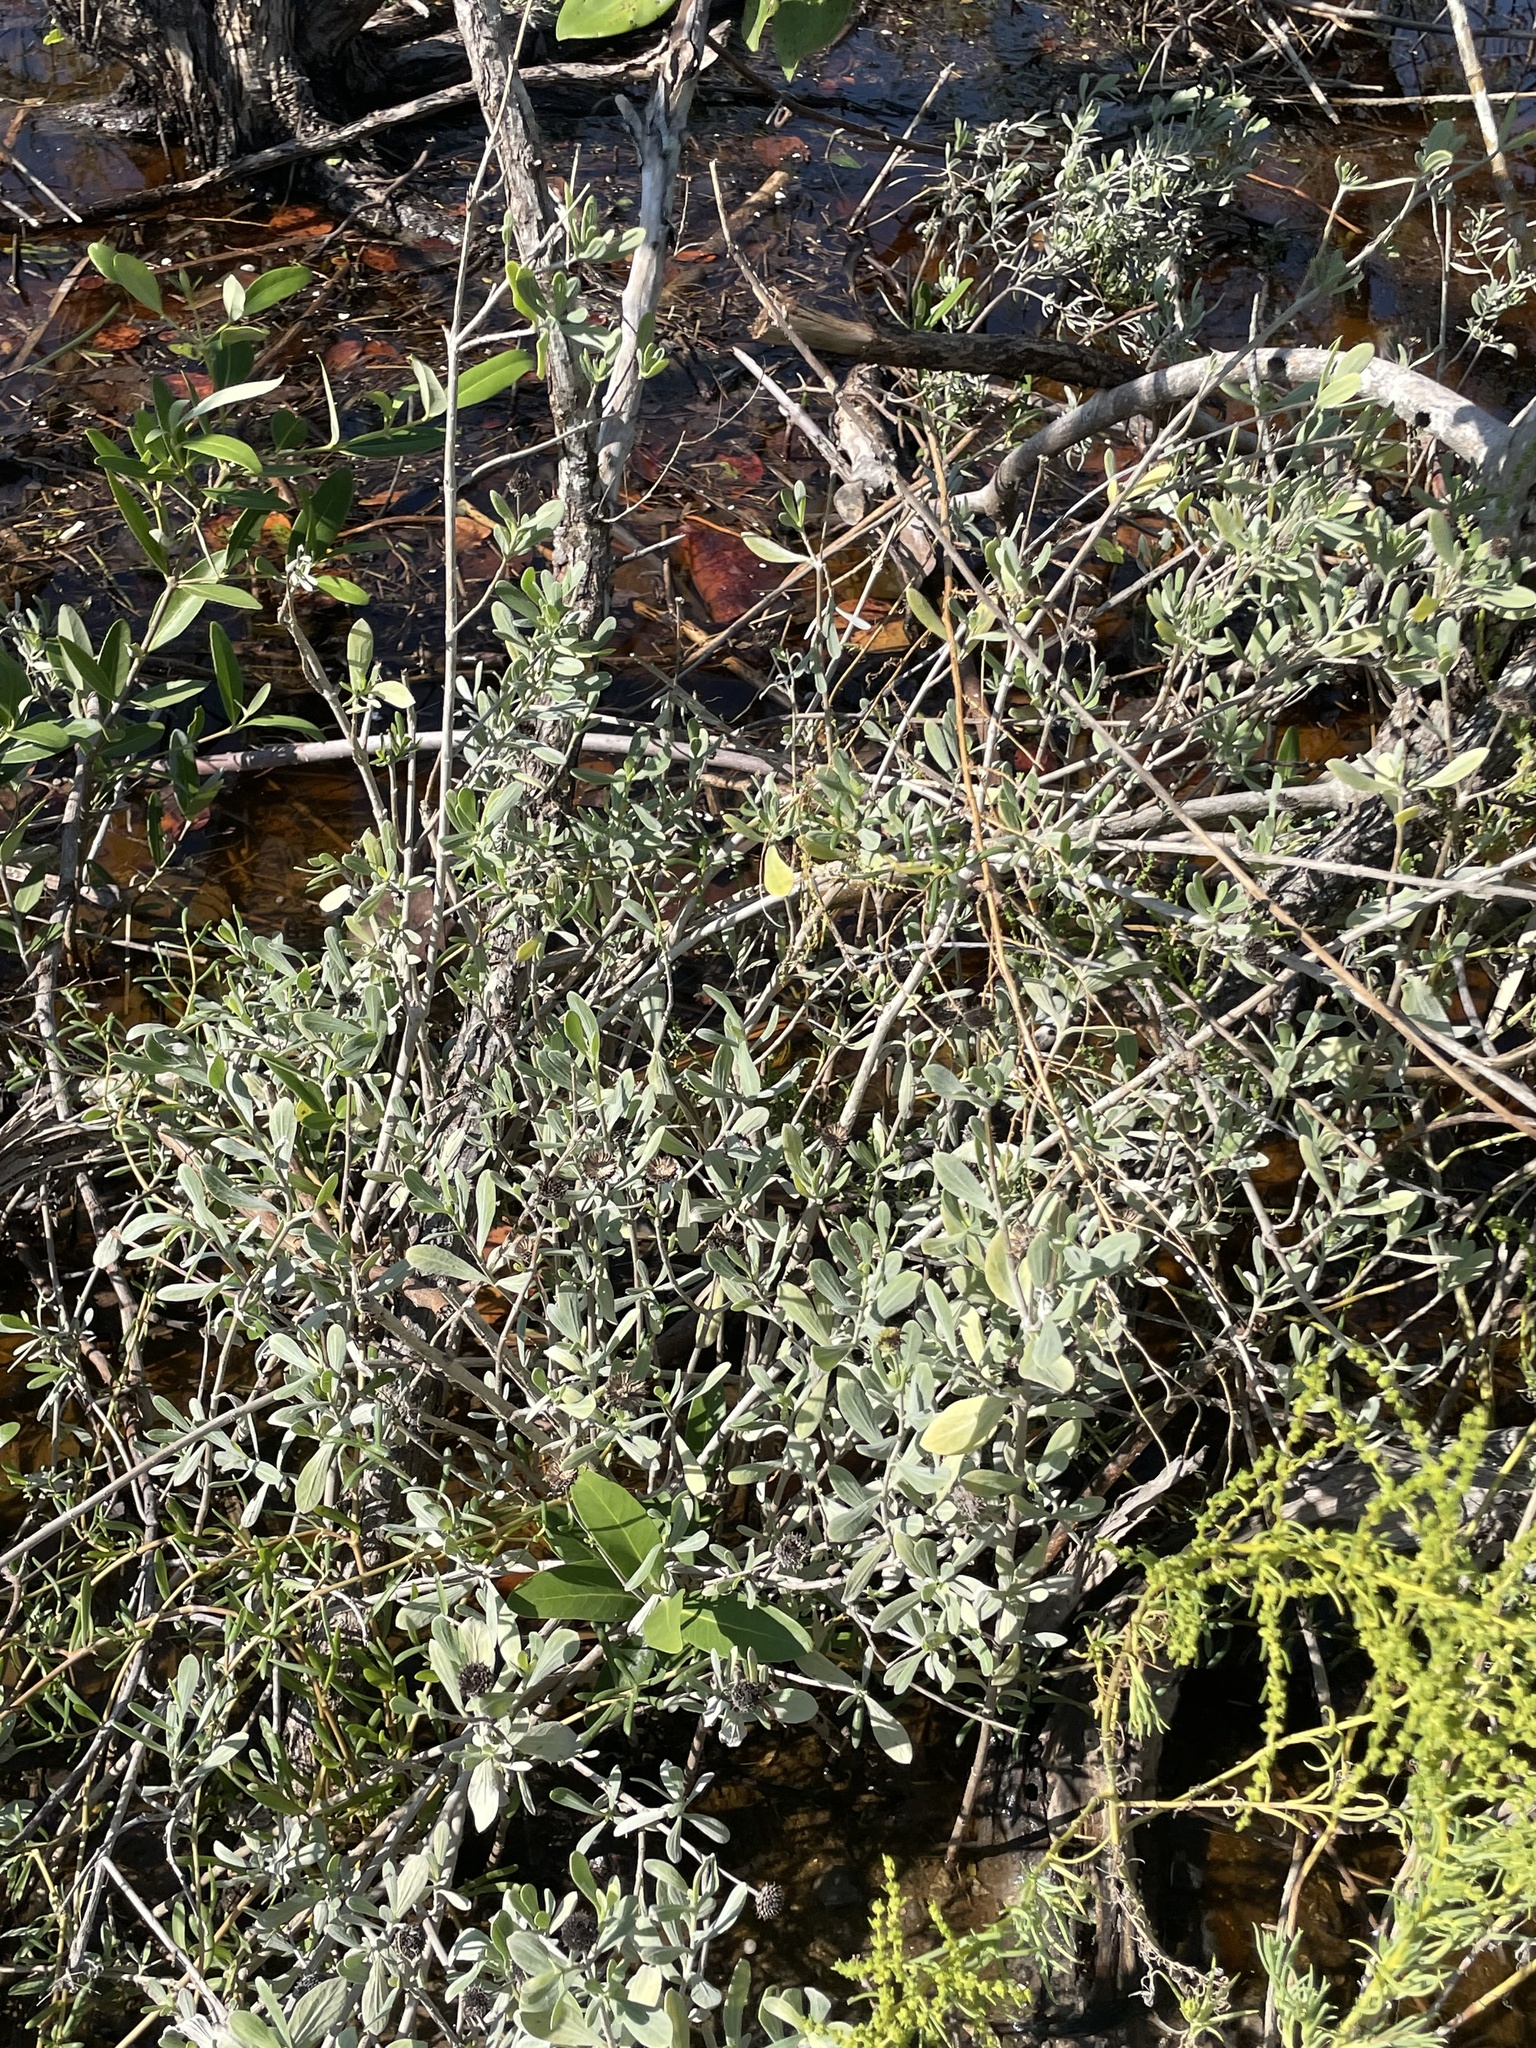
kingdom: Plantae
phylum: Tracheophyta
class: Magnoliopsida
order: Asterales
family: Asteraceae
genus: Borrichia
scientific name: Borrichia frutescens
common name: Sea oxeye
